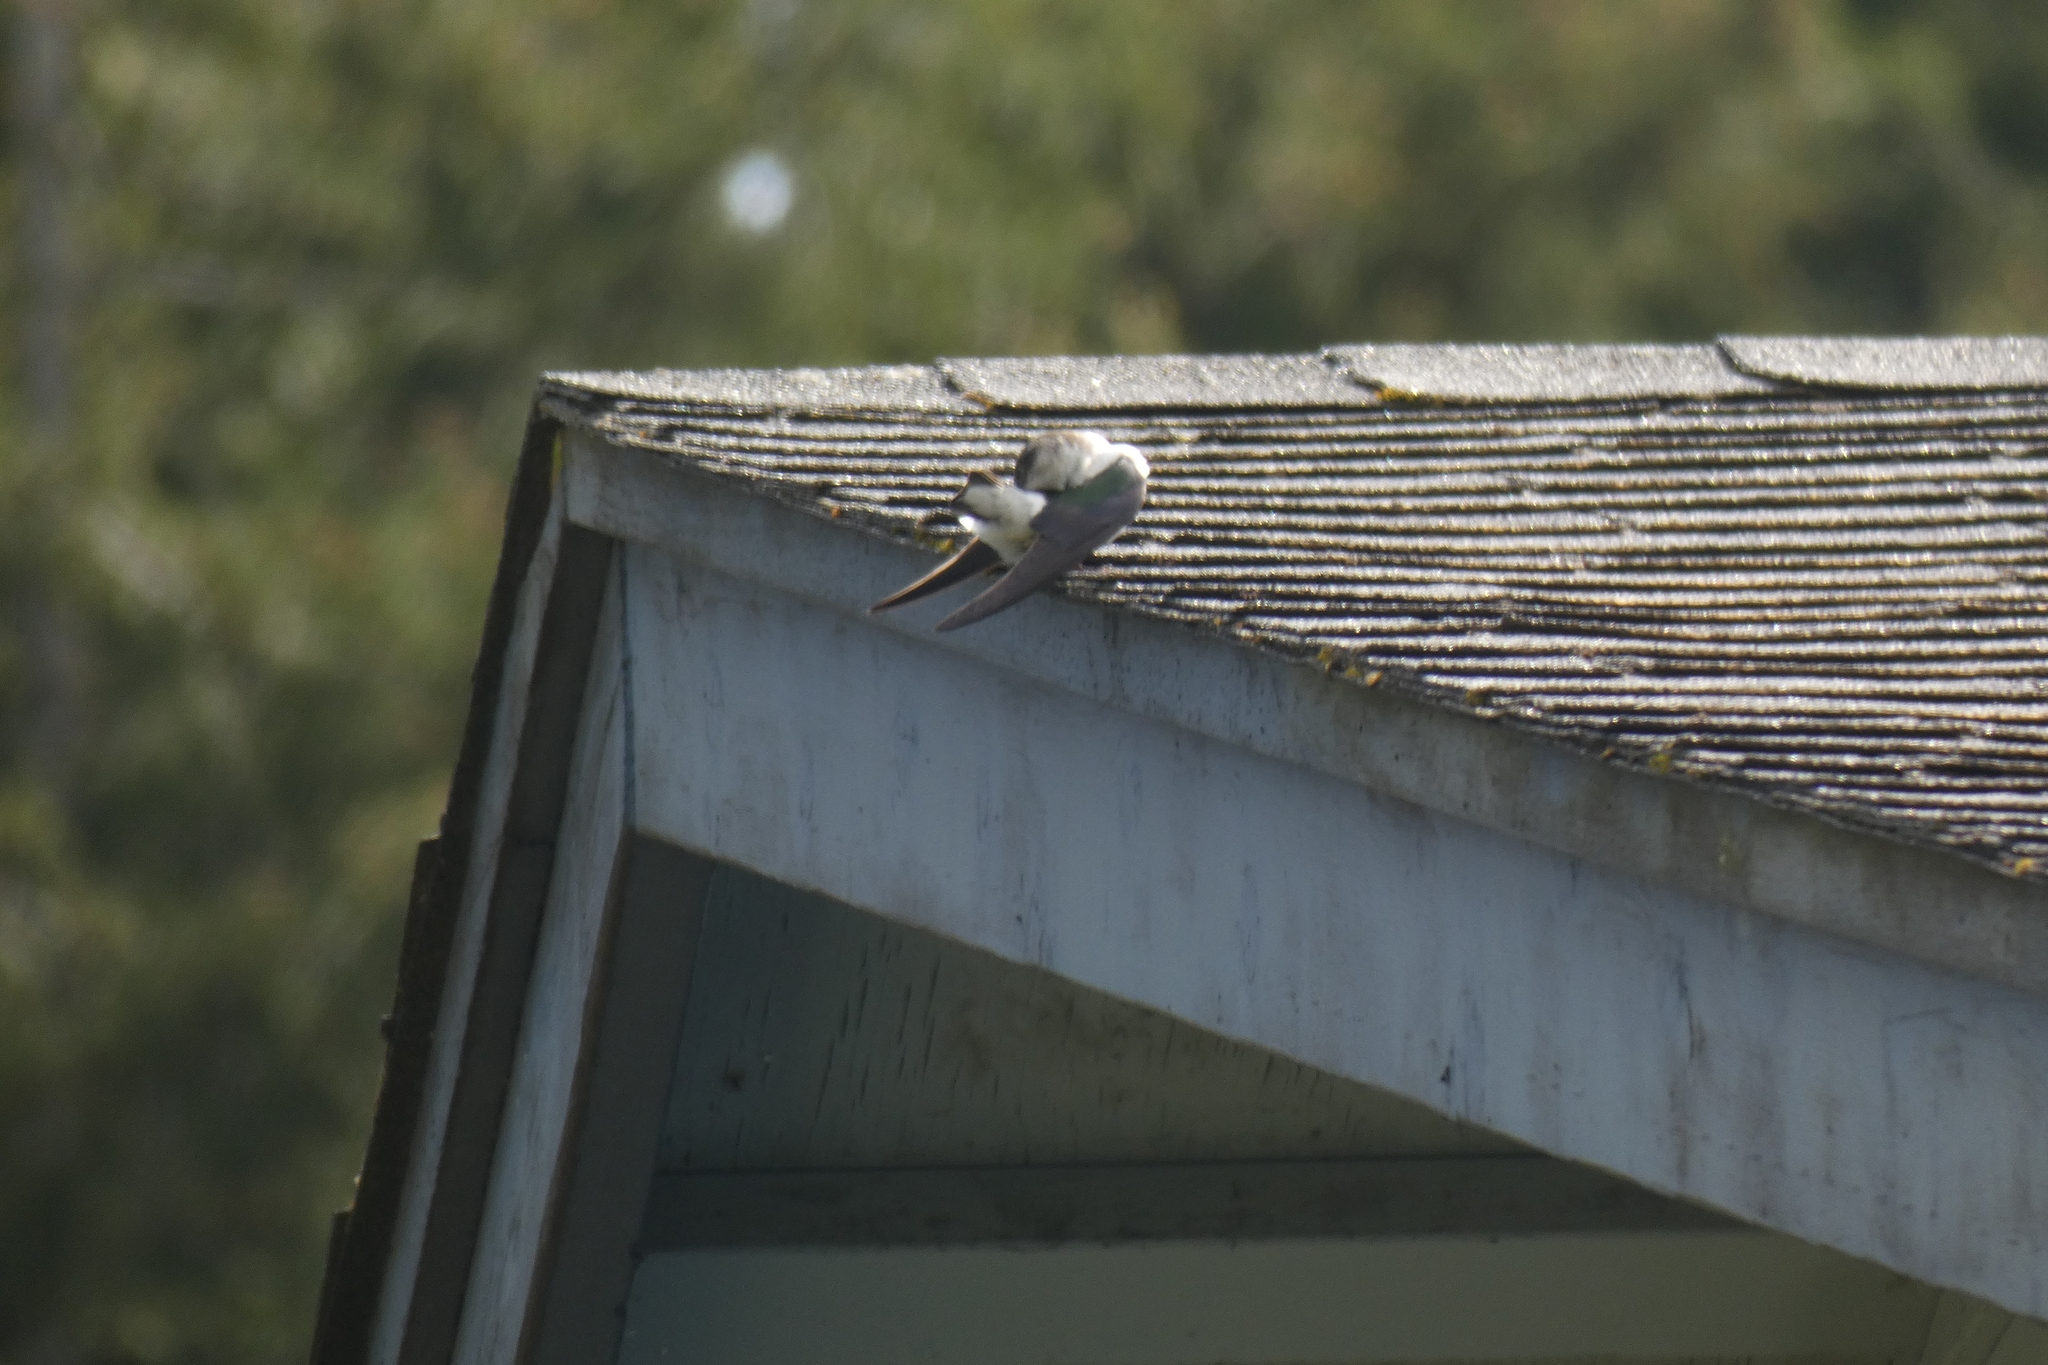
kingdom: Animalia
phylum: Chordata
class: Aves
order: Passeriformes
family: Hirundinidae
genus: Tachycineta
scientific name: Tachycineta thalassina
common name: Violet-green swallow
